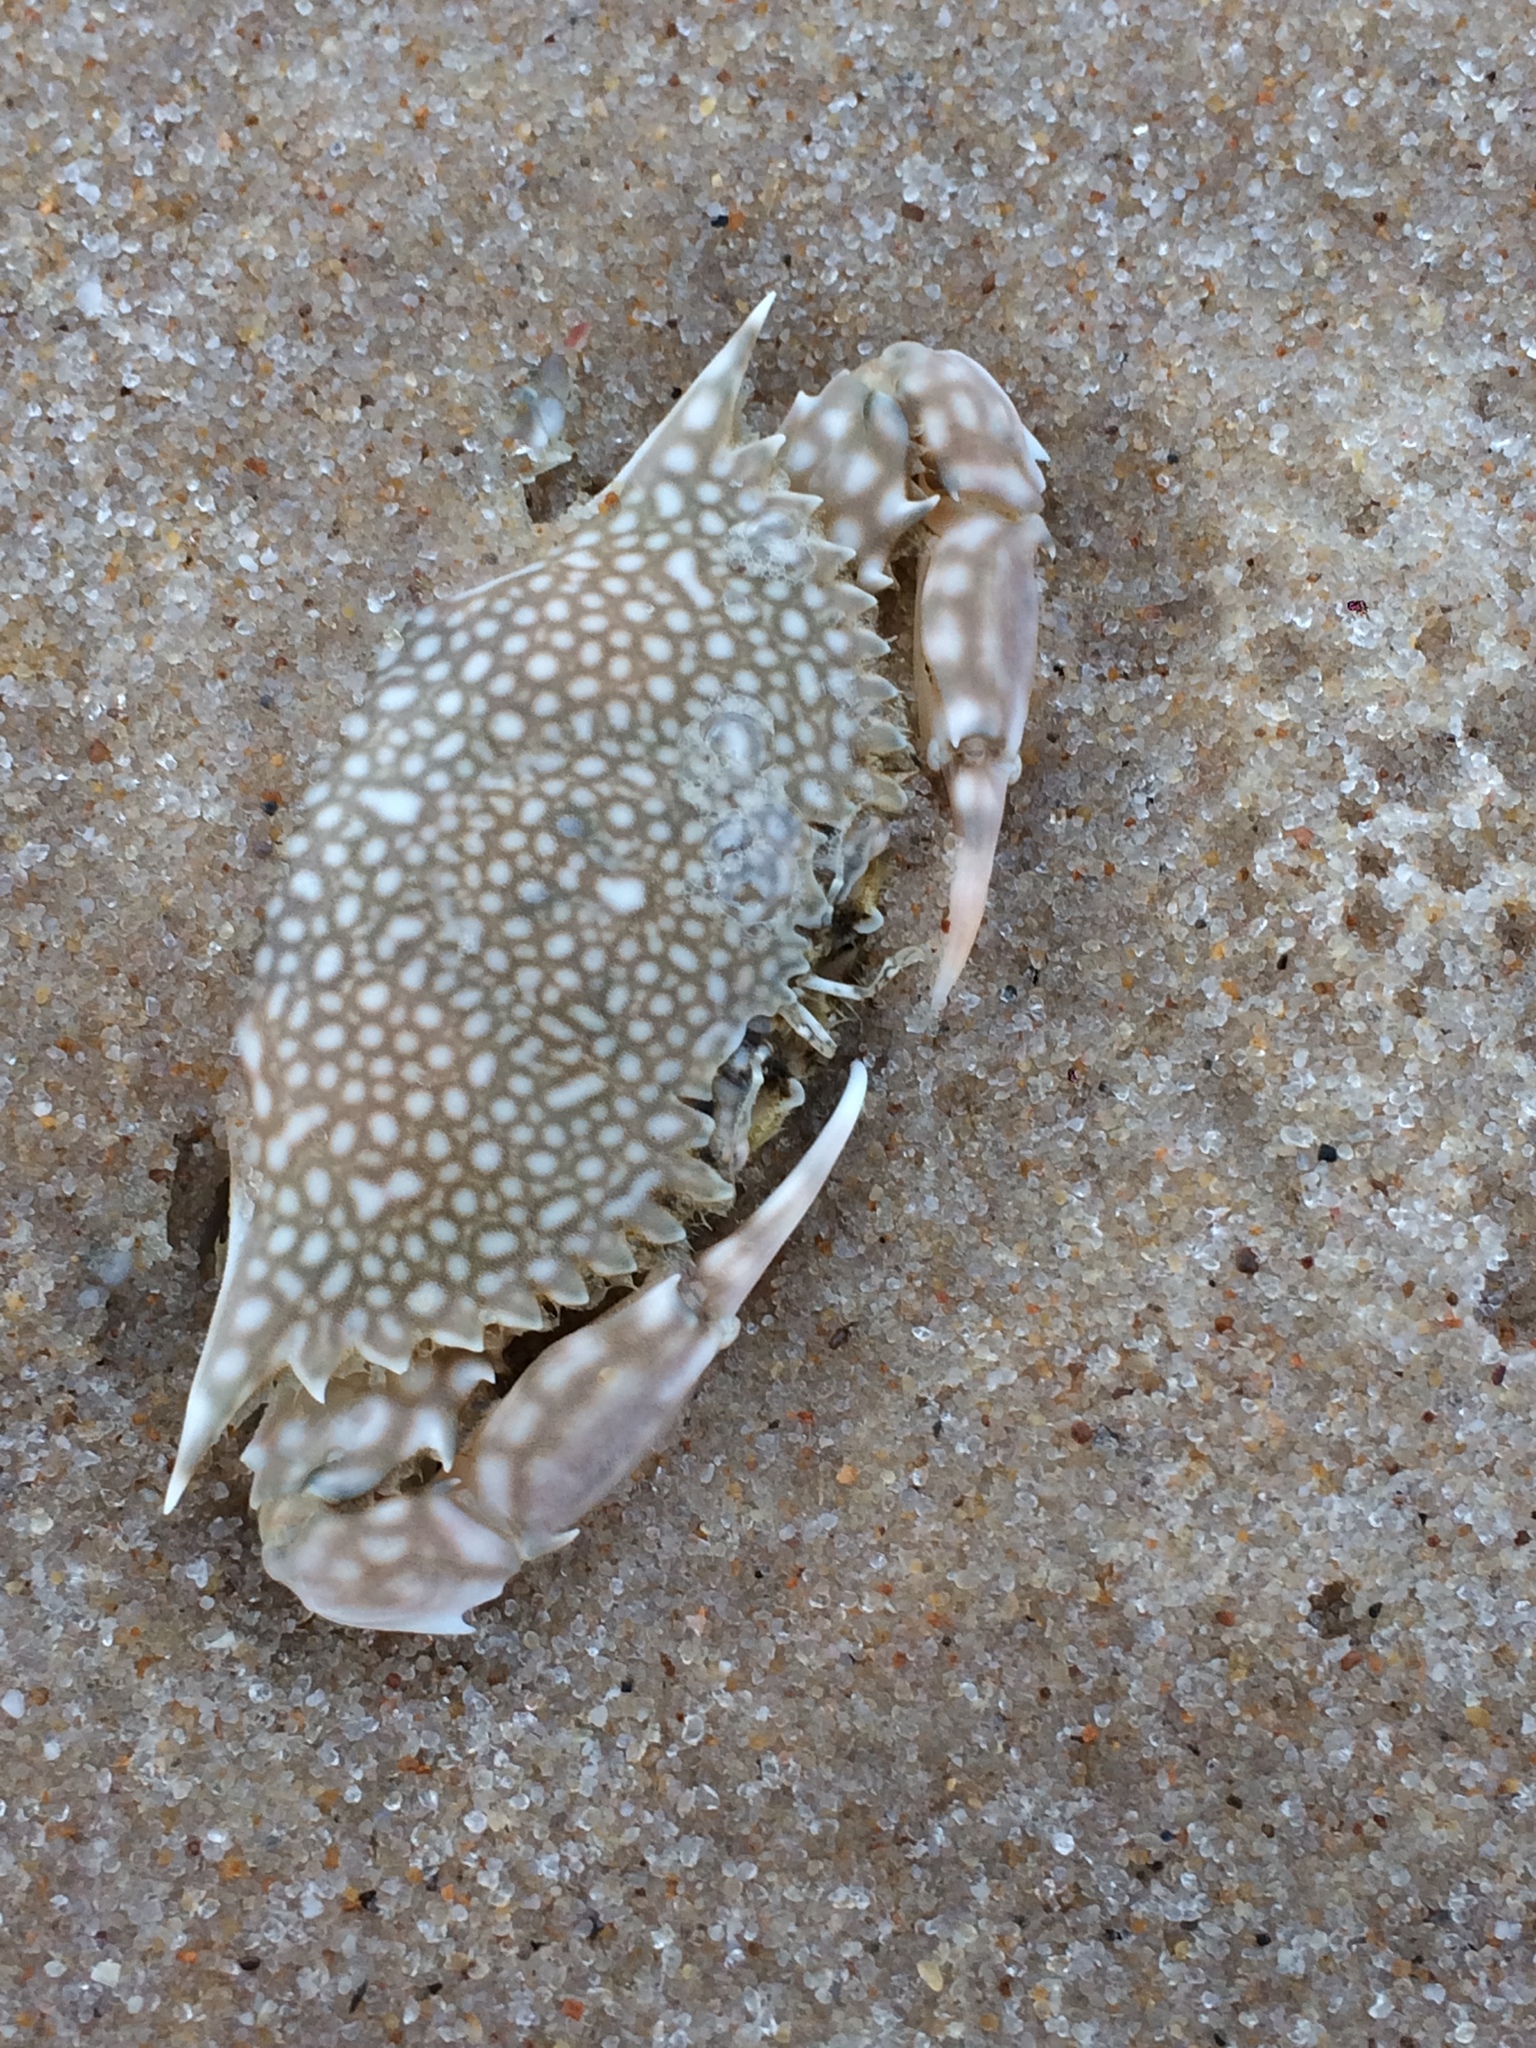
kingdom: Animalia
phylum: Arthropoda
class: Malacostraca
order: Decapoda
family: Portunidae
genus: Arenaeus
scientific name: Arenaeus cribrarius
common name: Speckled crab
